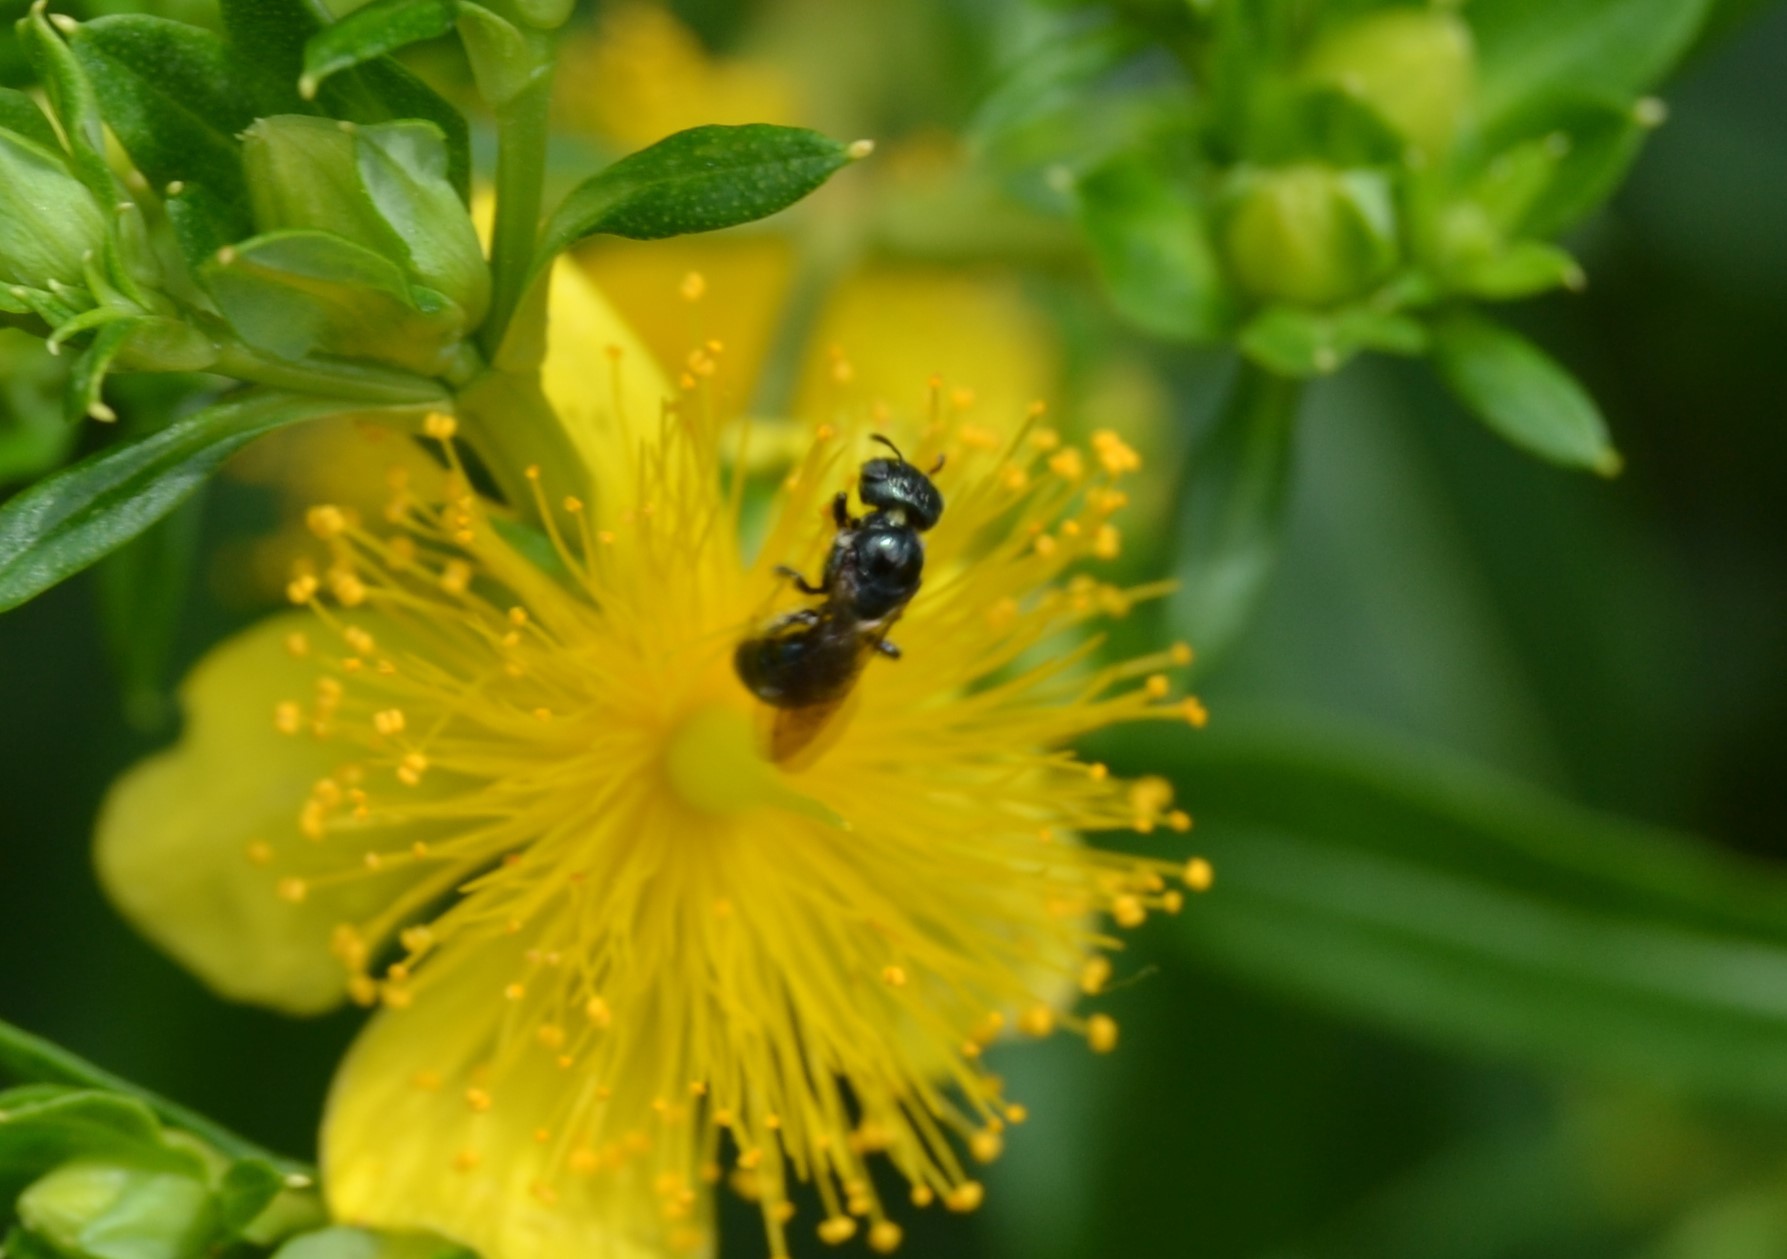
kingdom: Animalia
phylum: Arthropoda
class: Insecta
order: Hymenoptera
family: Apidae
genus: Zadontomerus
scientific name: Zadontomerus
